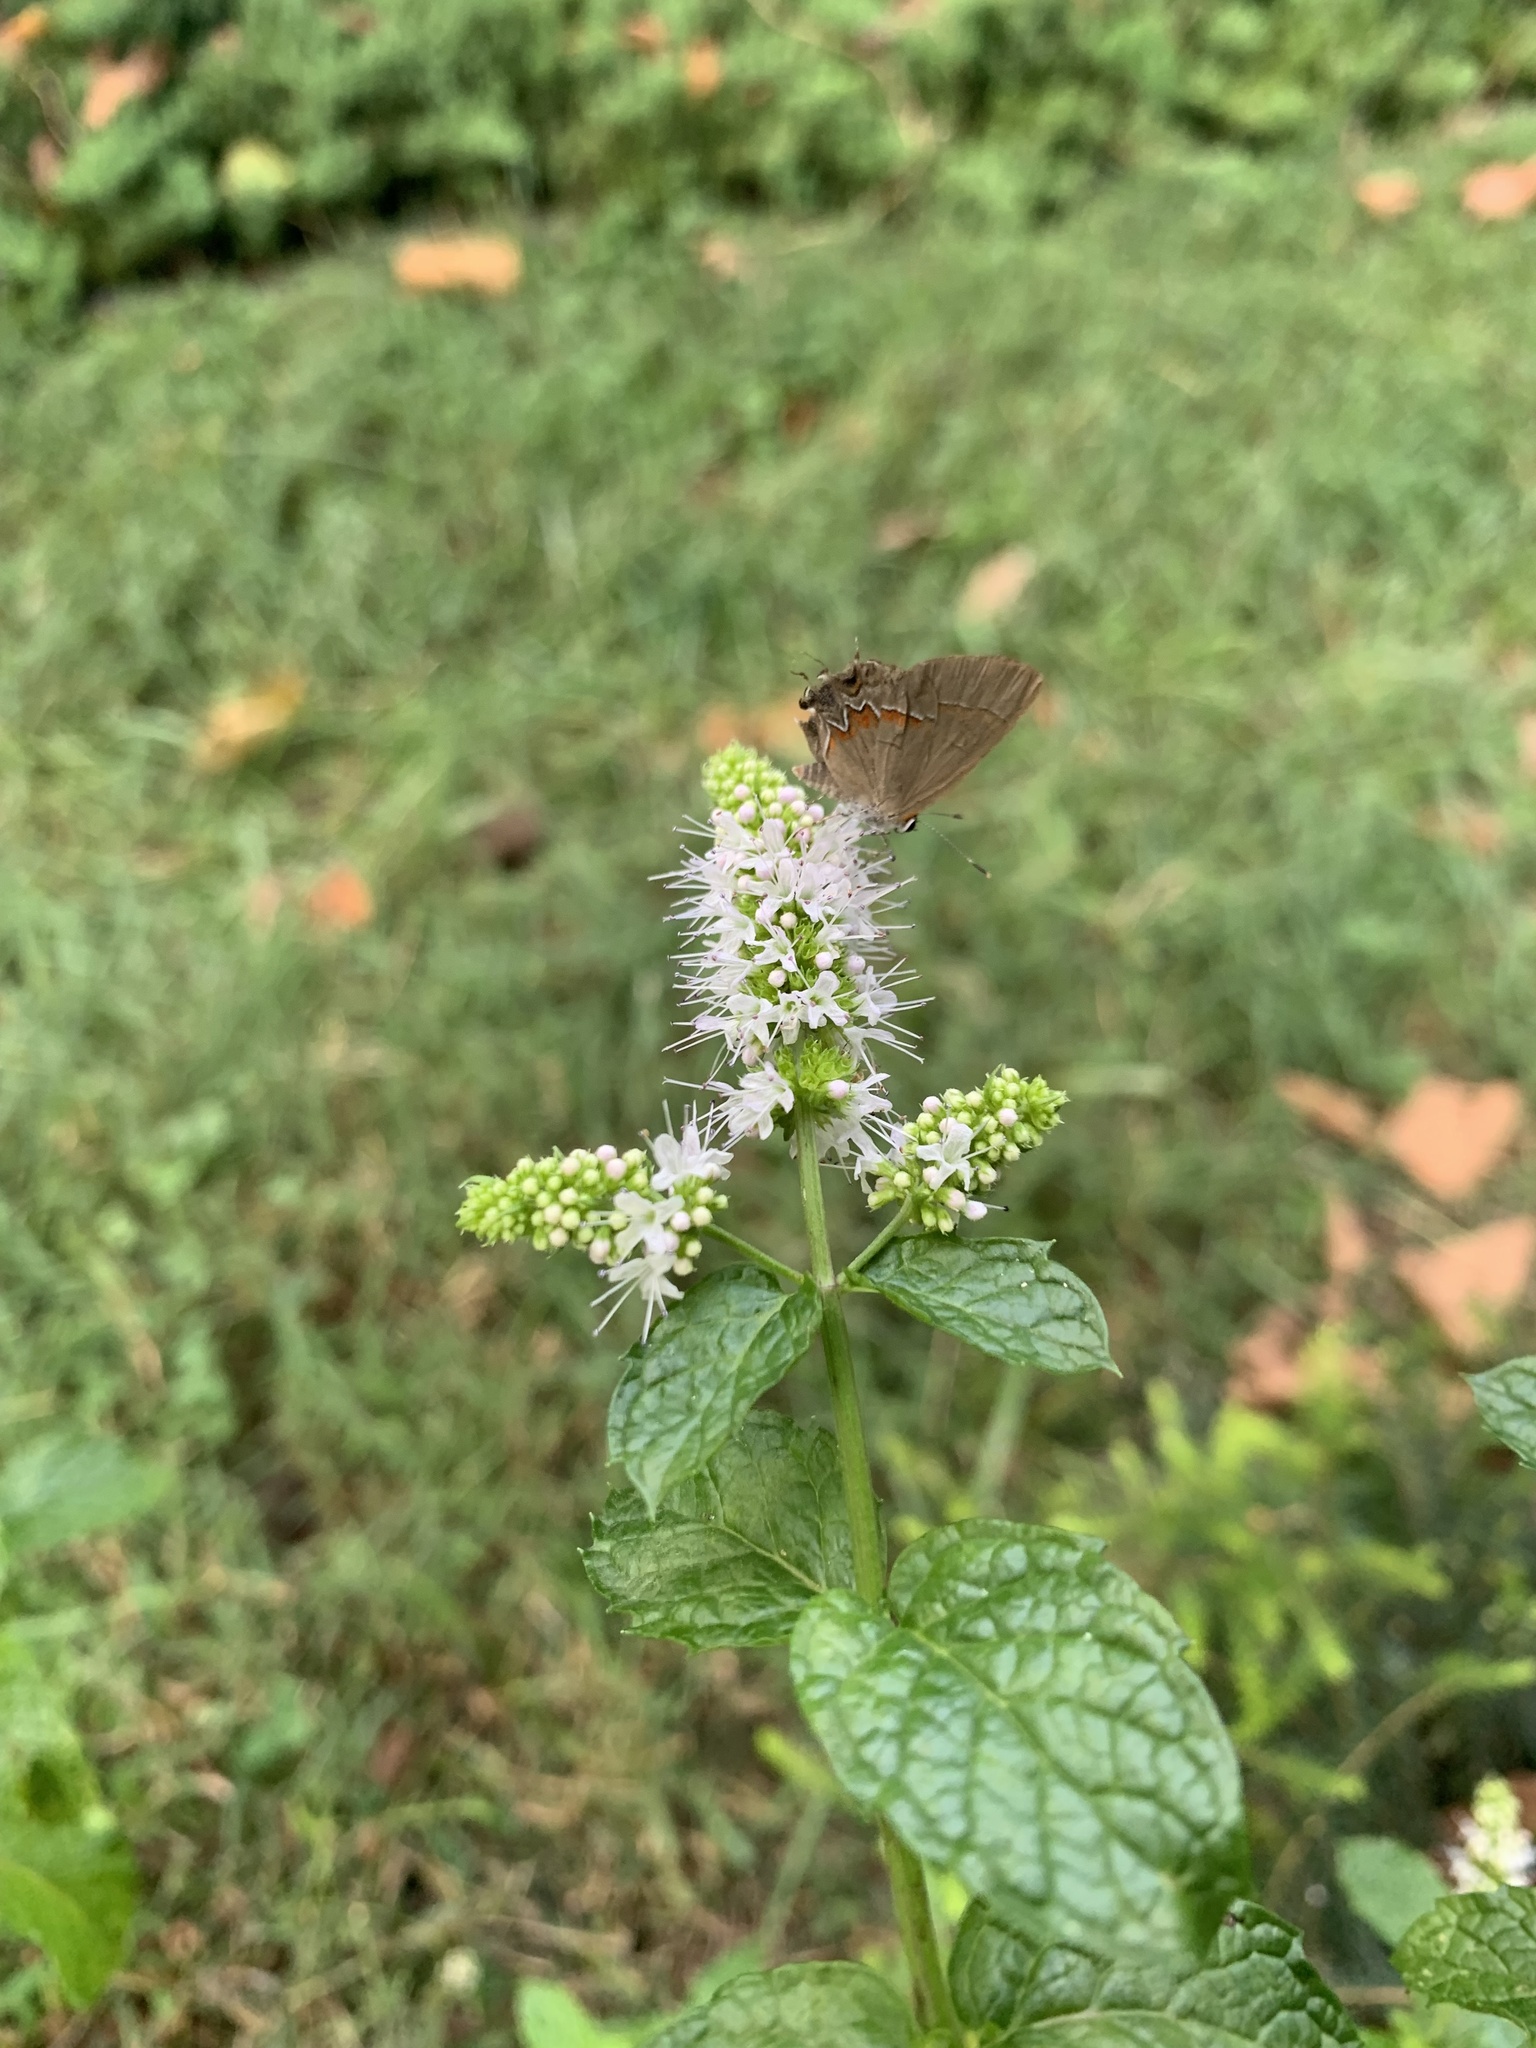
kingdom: Animalia
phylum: Arthropoda
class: Insecta
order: Lepidoptera
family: Lycaenidae
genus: Calycopis
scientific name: Calycopis cecrops
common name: Red-banded hairstreak
